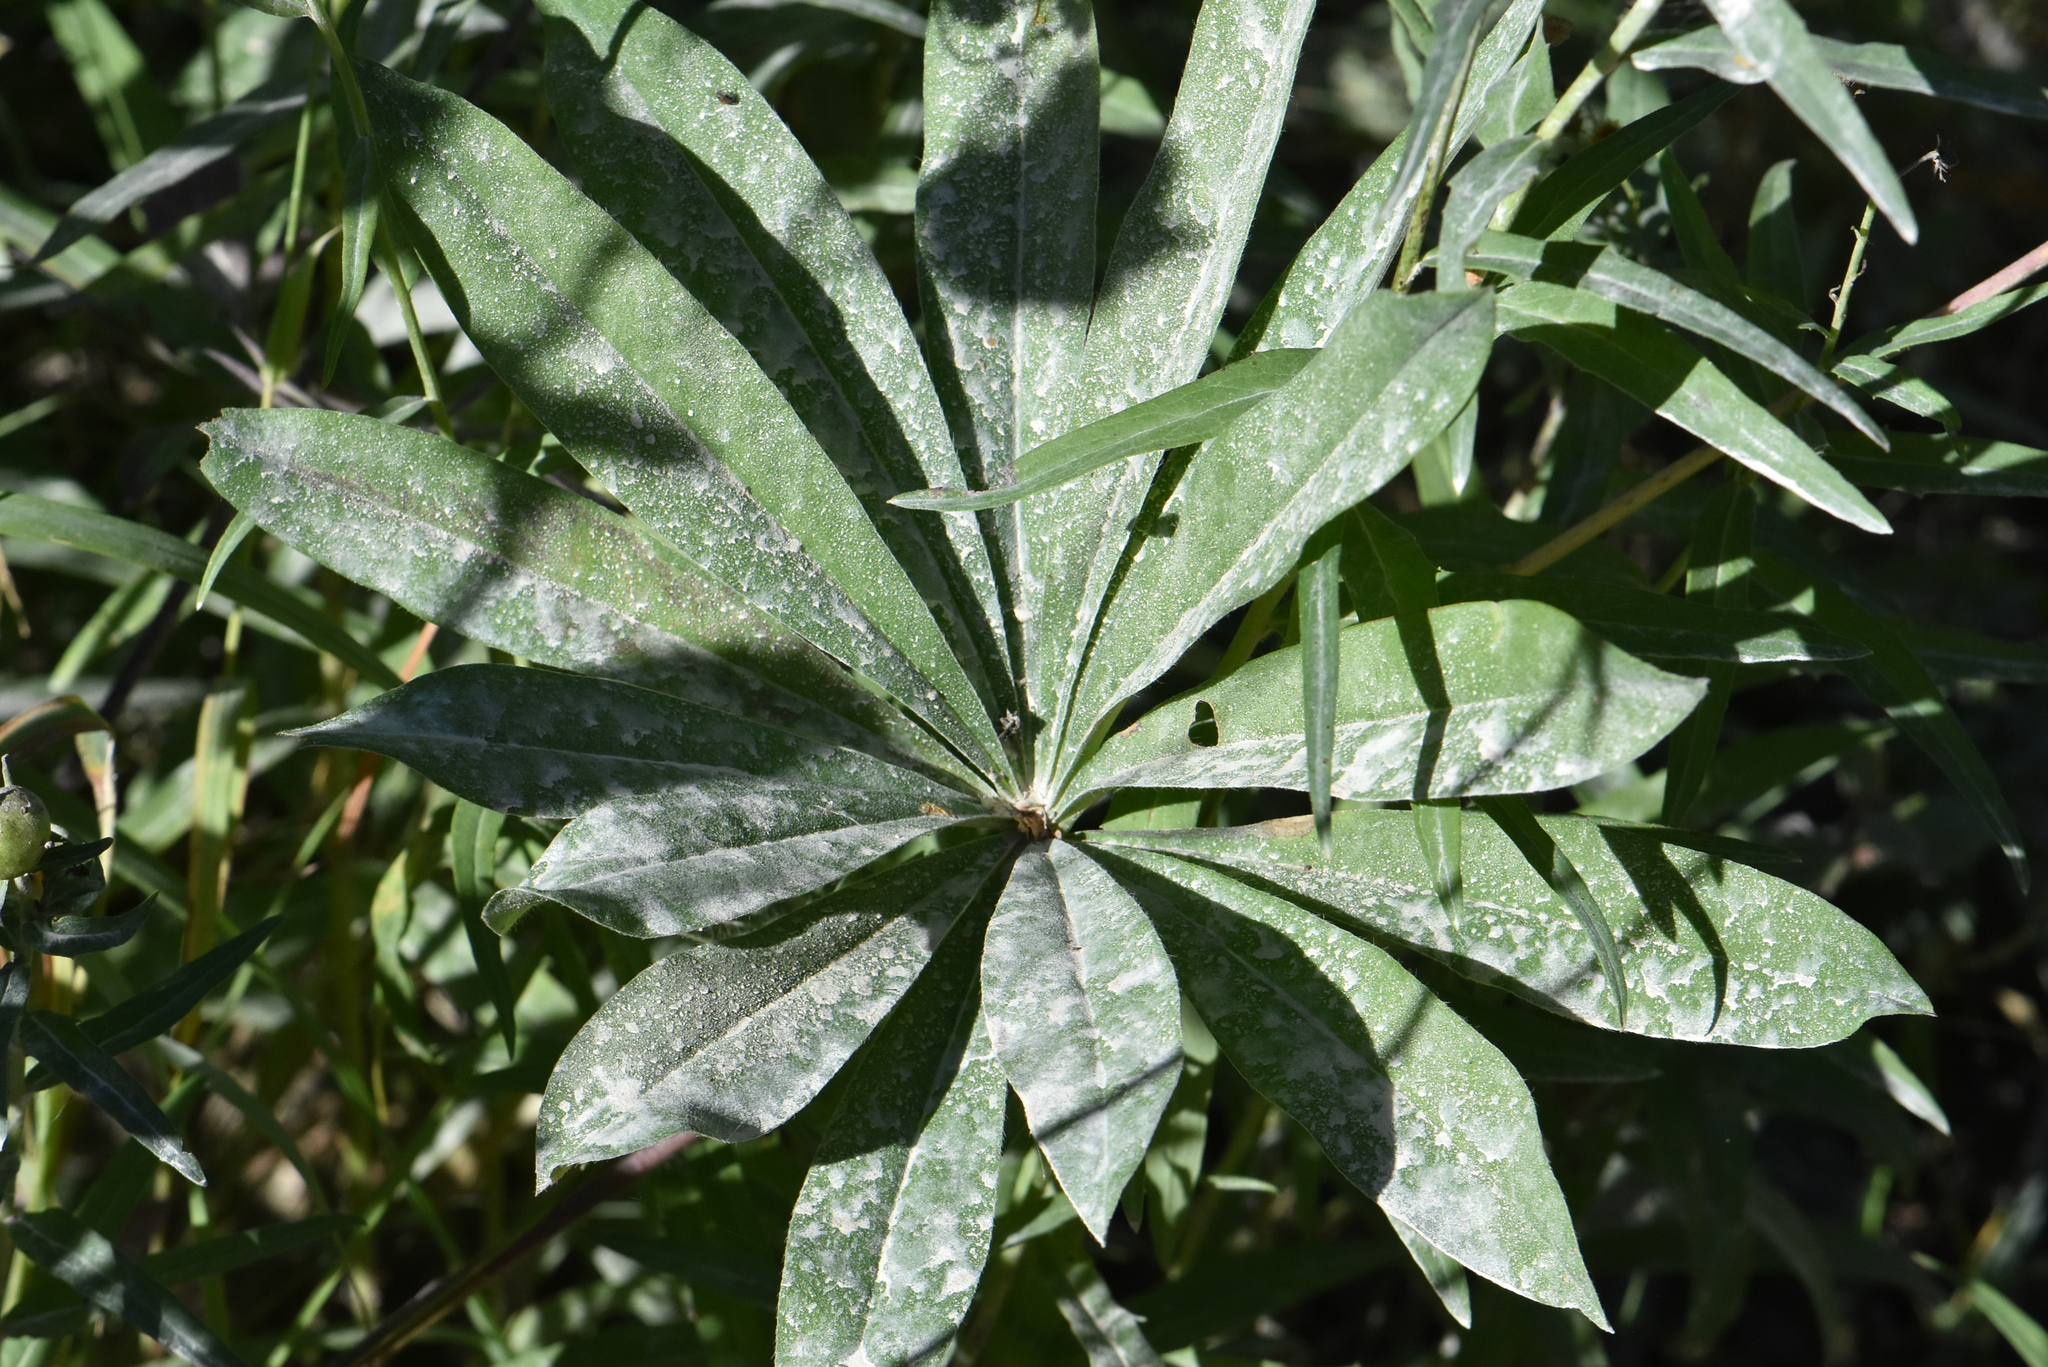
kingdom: Plantae
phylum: Tracheophyta
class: Magnoliopsida
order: Fabales
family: Fabaceae
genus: Lupinus
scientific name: Lupinus polyphyllus
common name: Garden lupin
